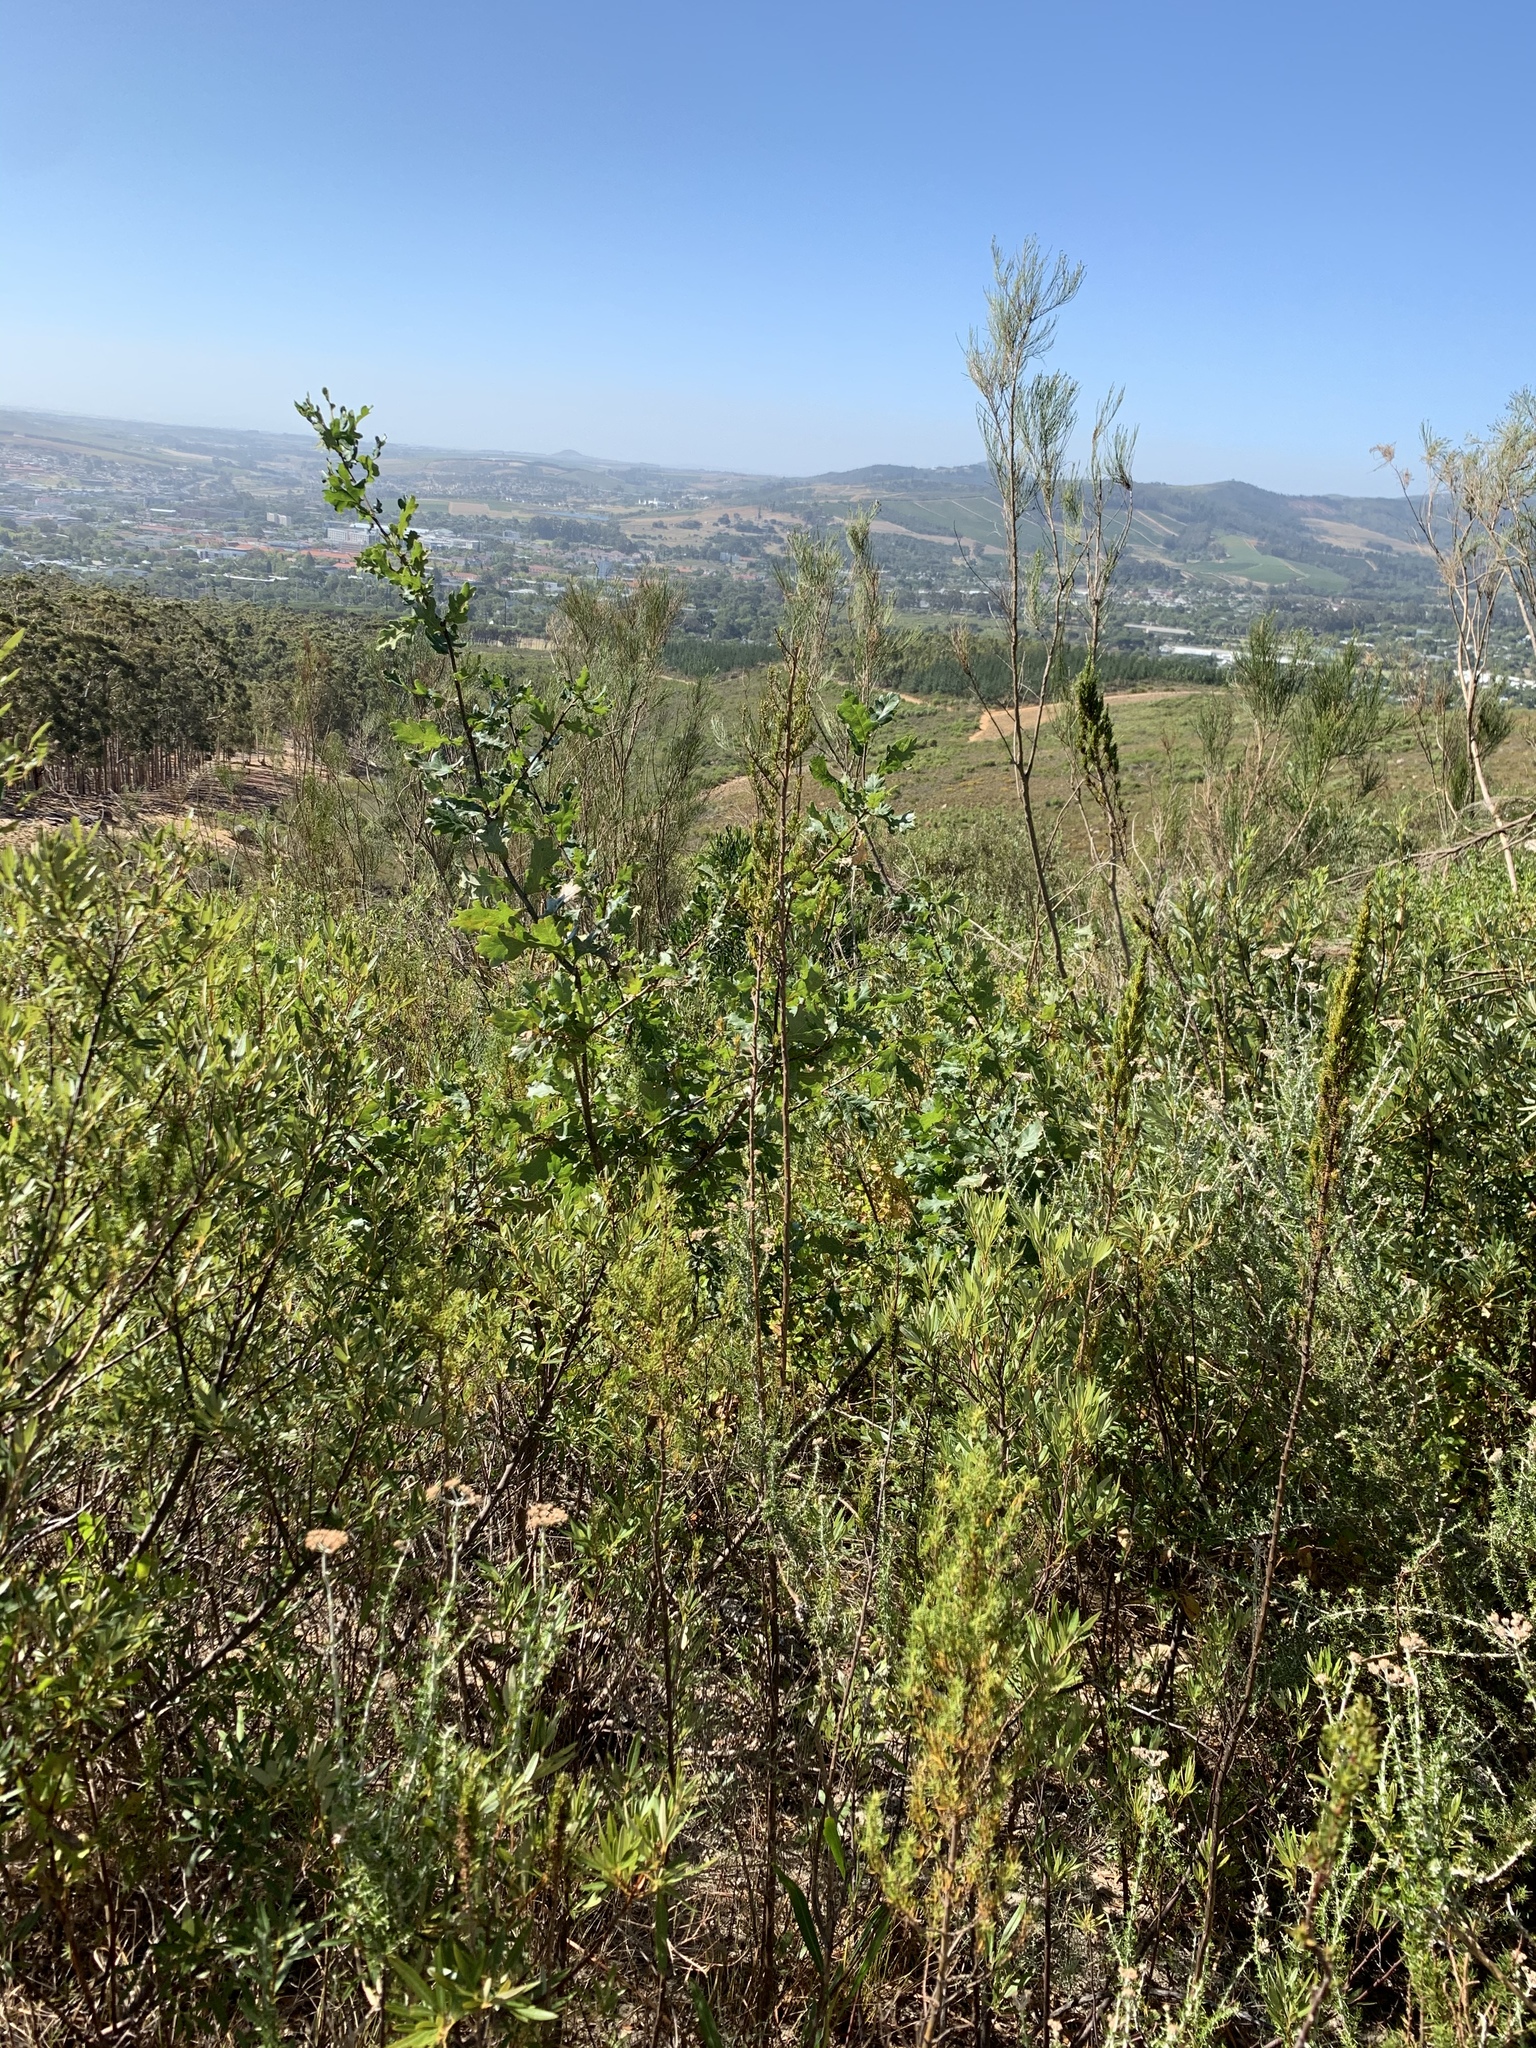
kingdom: Plantae
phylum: Tracheophyta
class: Magnoliopsida
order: Fagales
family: Fagaceae
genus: Quercus
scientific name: Quercus robur
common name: Pedunculate oak
